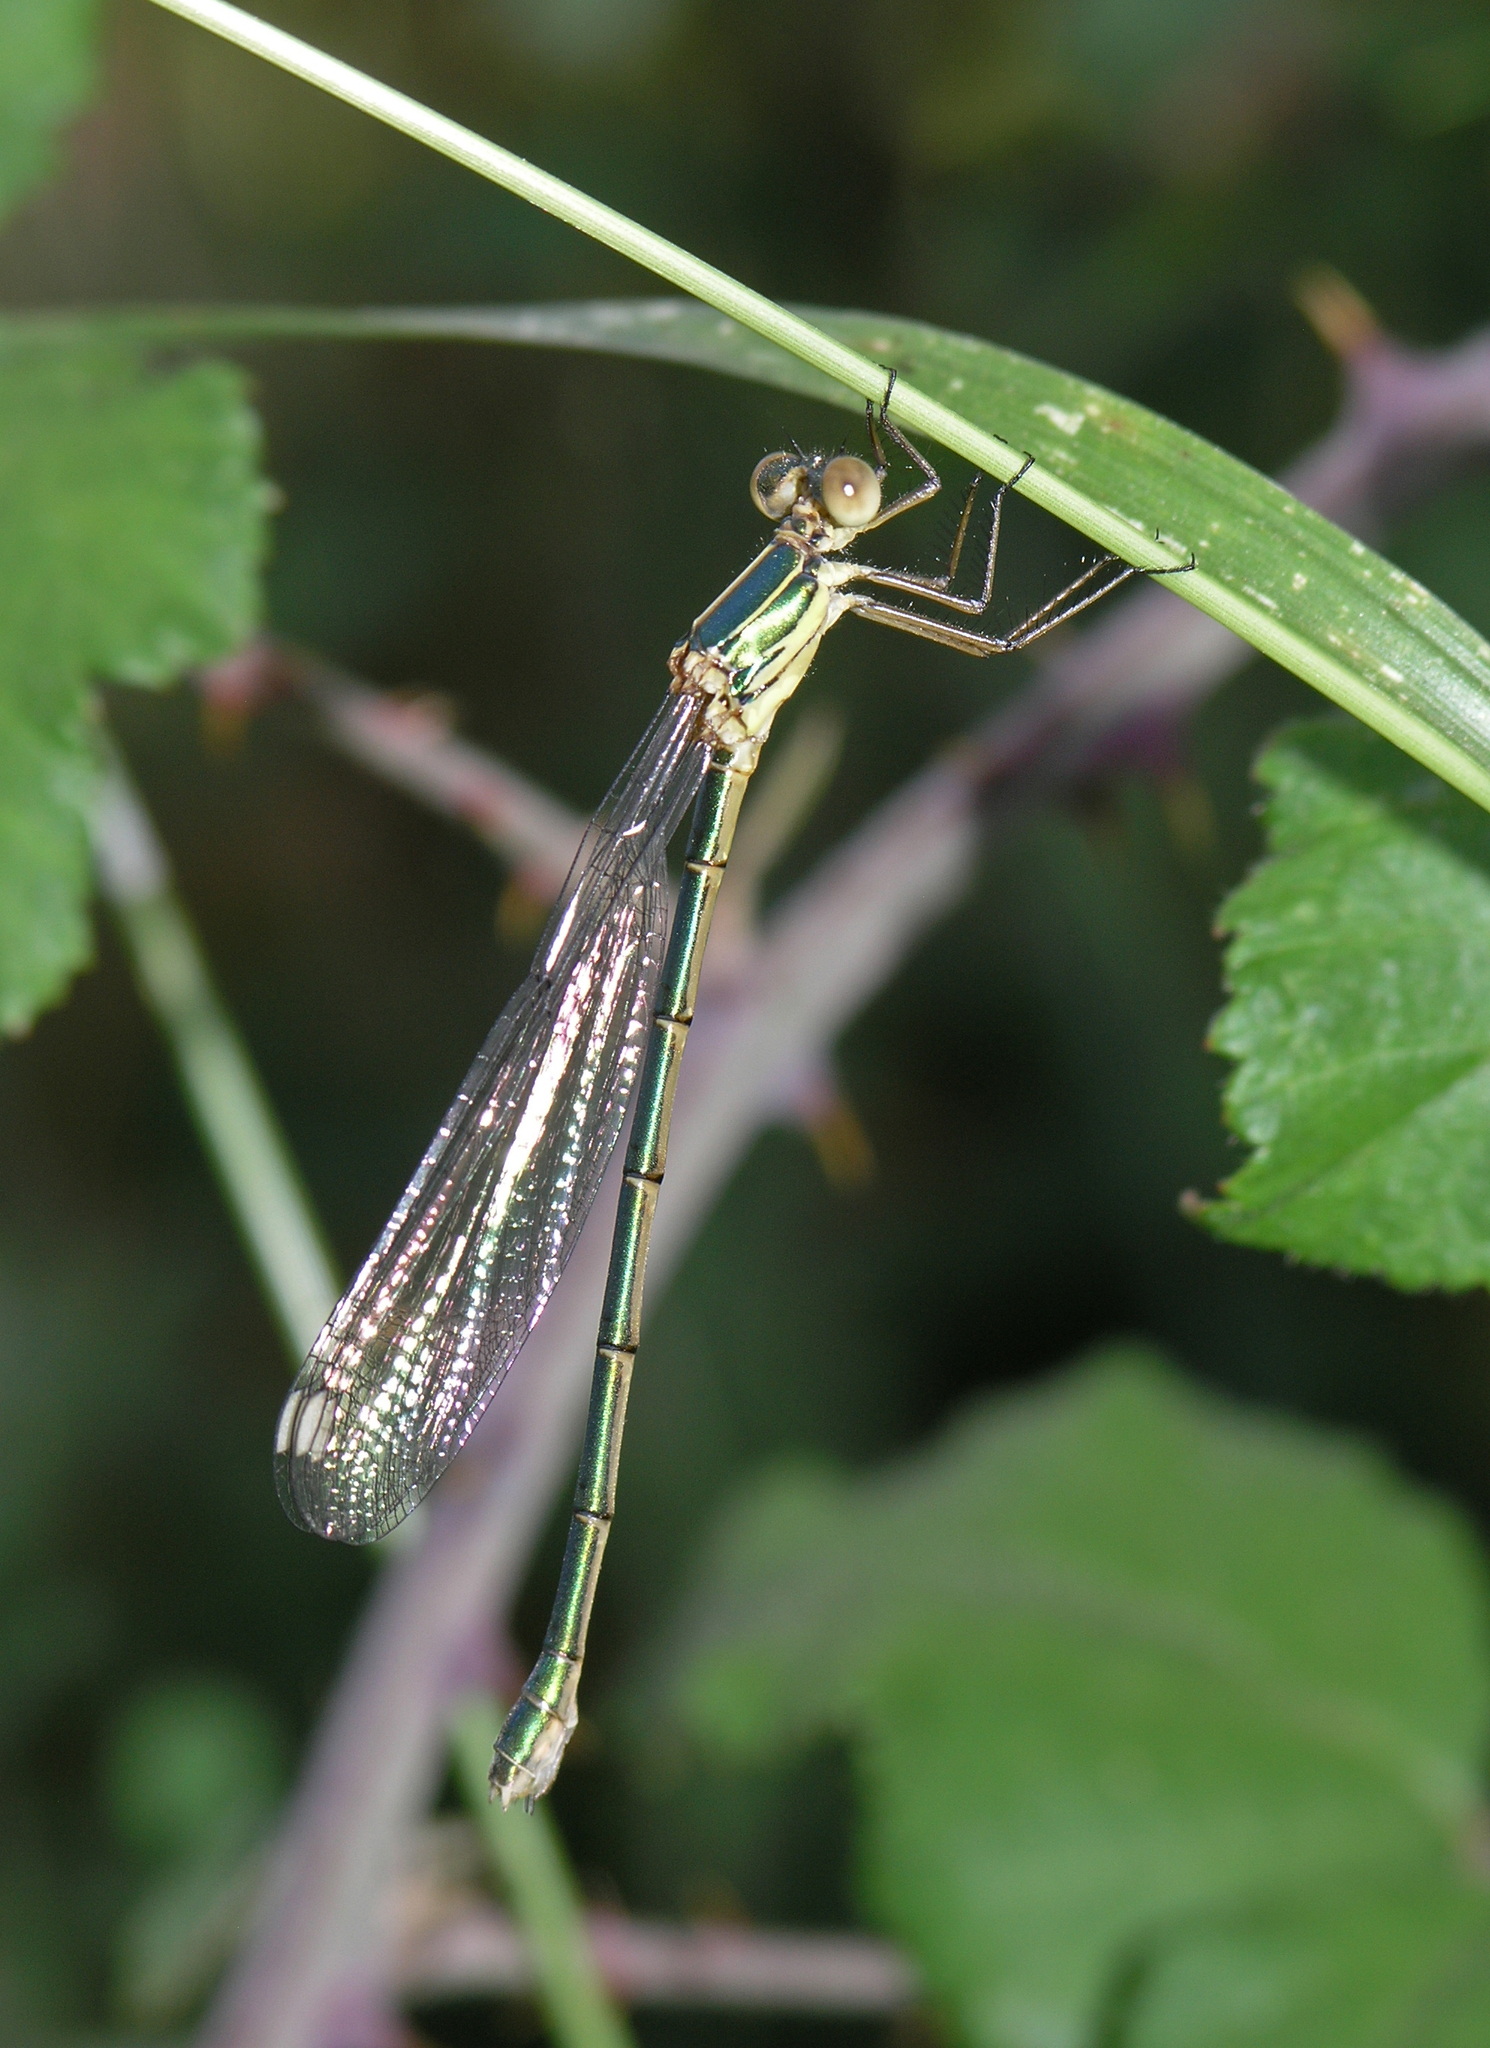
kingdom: Animalia
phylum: Arthropoda
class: Insecta
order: Odonata
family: Lestidae
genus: Chalcolestes
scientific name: Chalcolestes viridis
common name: Green emerald damselfly
